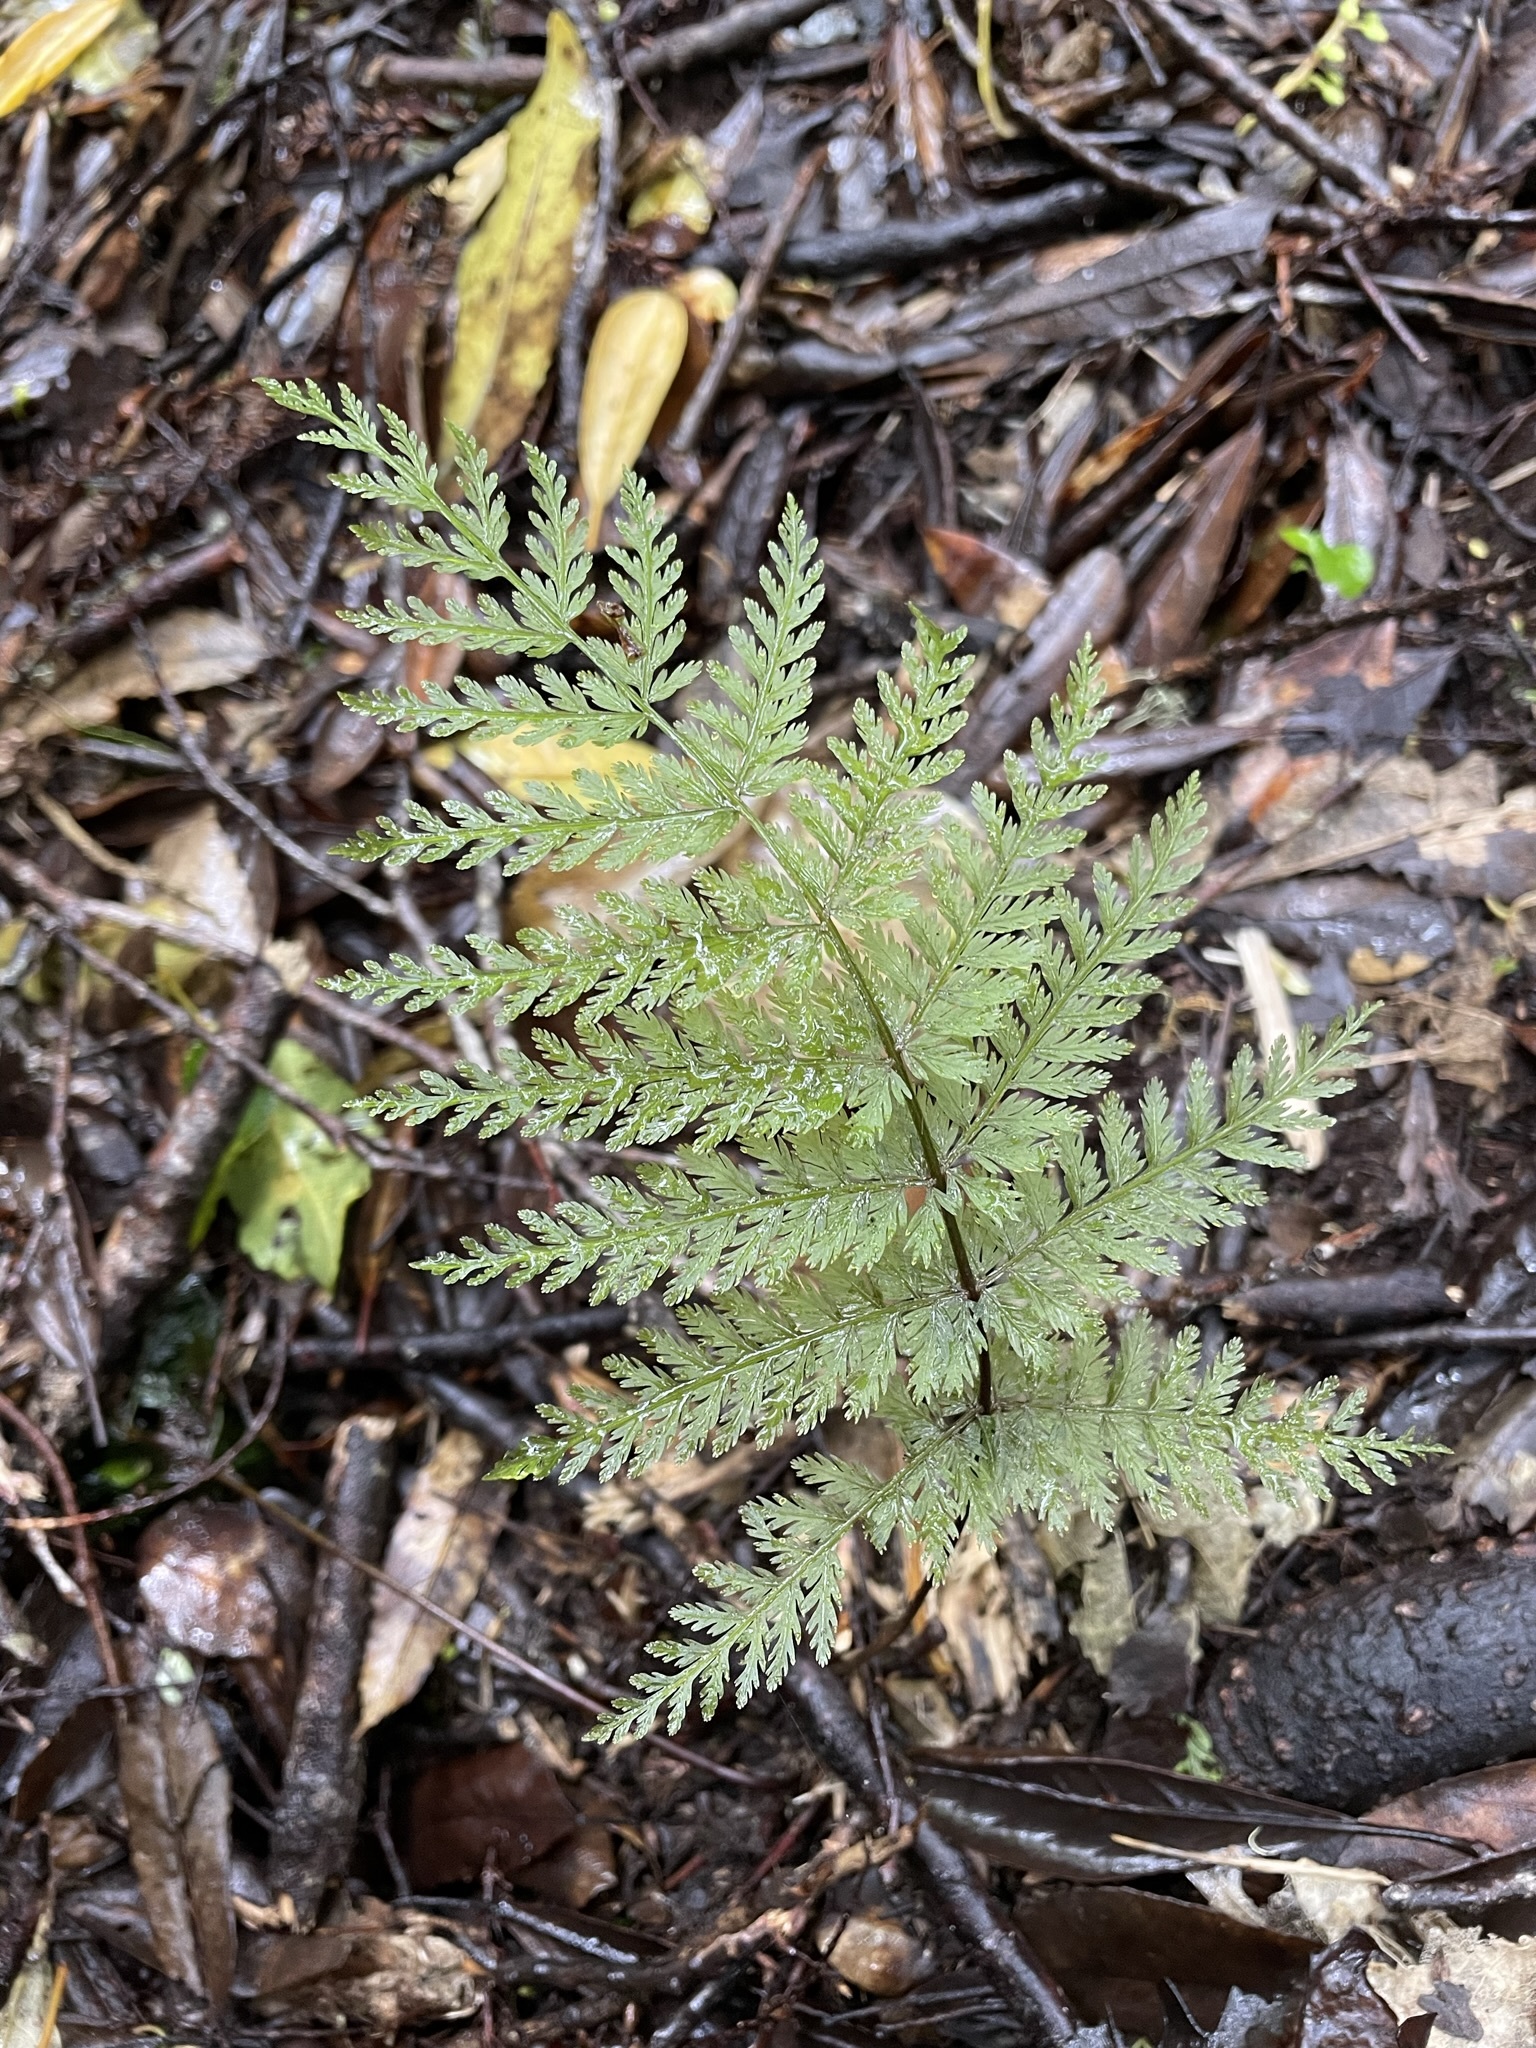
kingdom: Plantae
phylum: Tracheophyta
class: Polypodiopsida
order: Osmundales
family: Osmundaceae
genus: Leptopteris
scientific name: Leptopteris hymenophylloides
